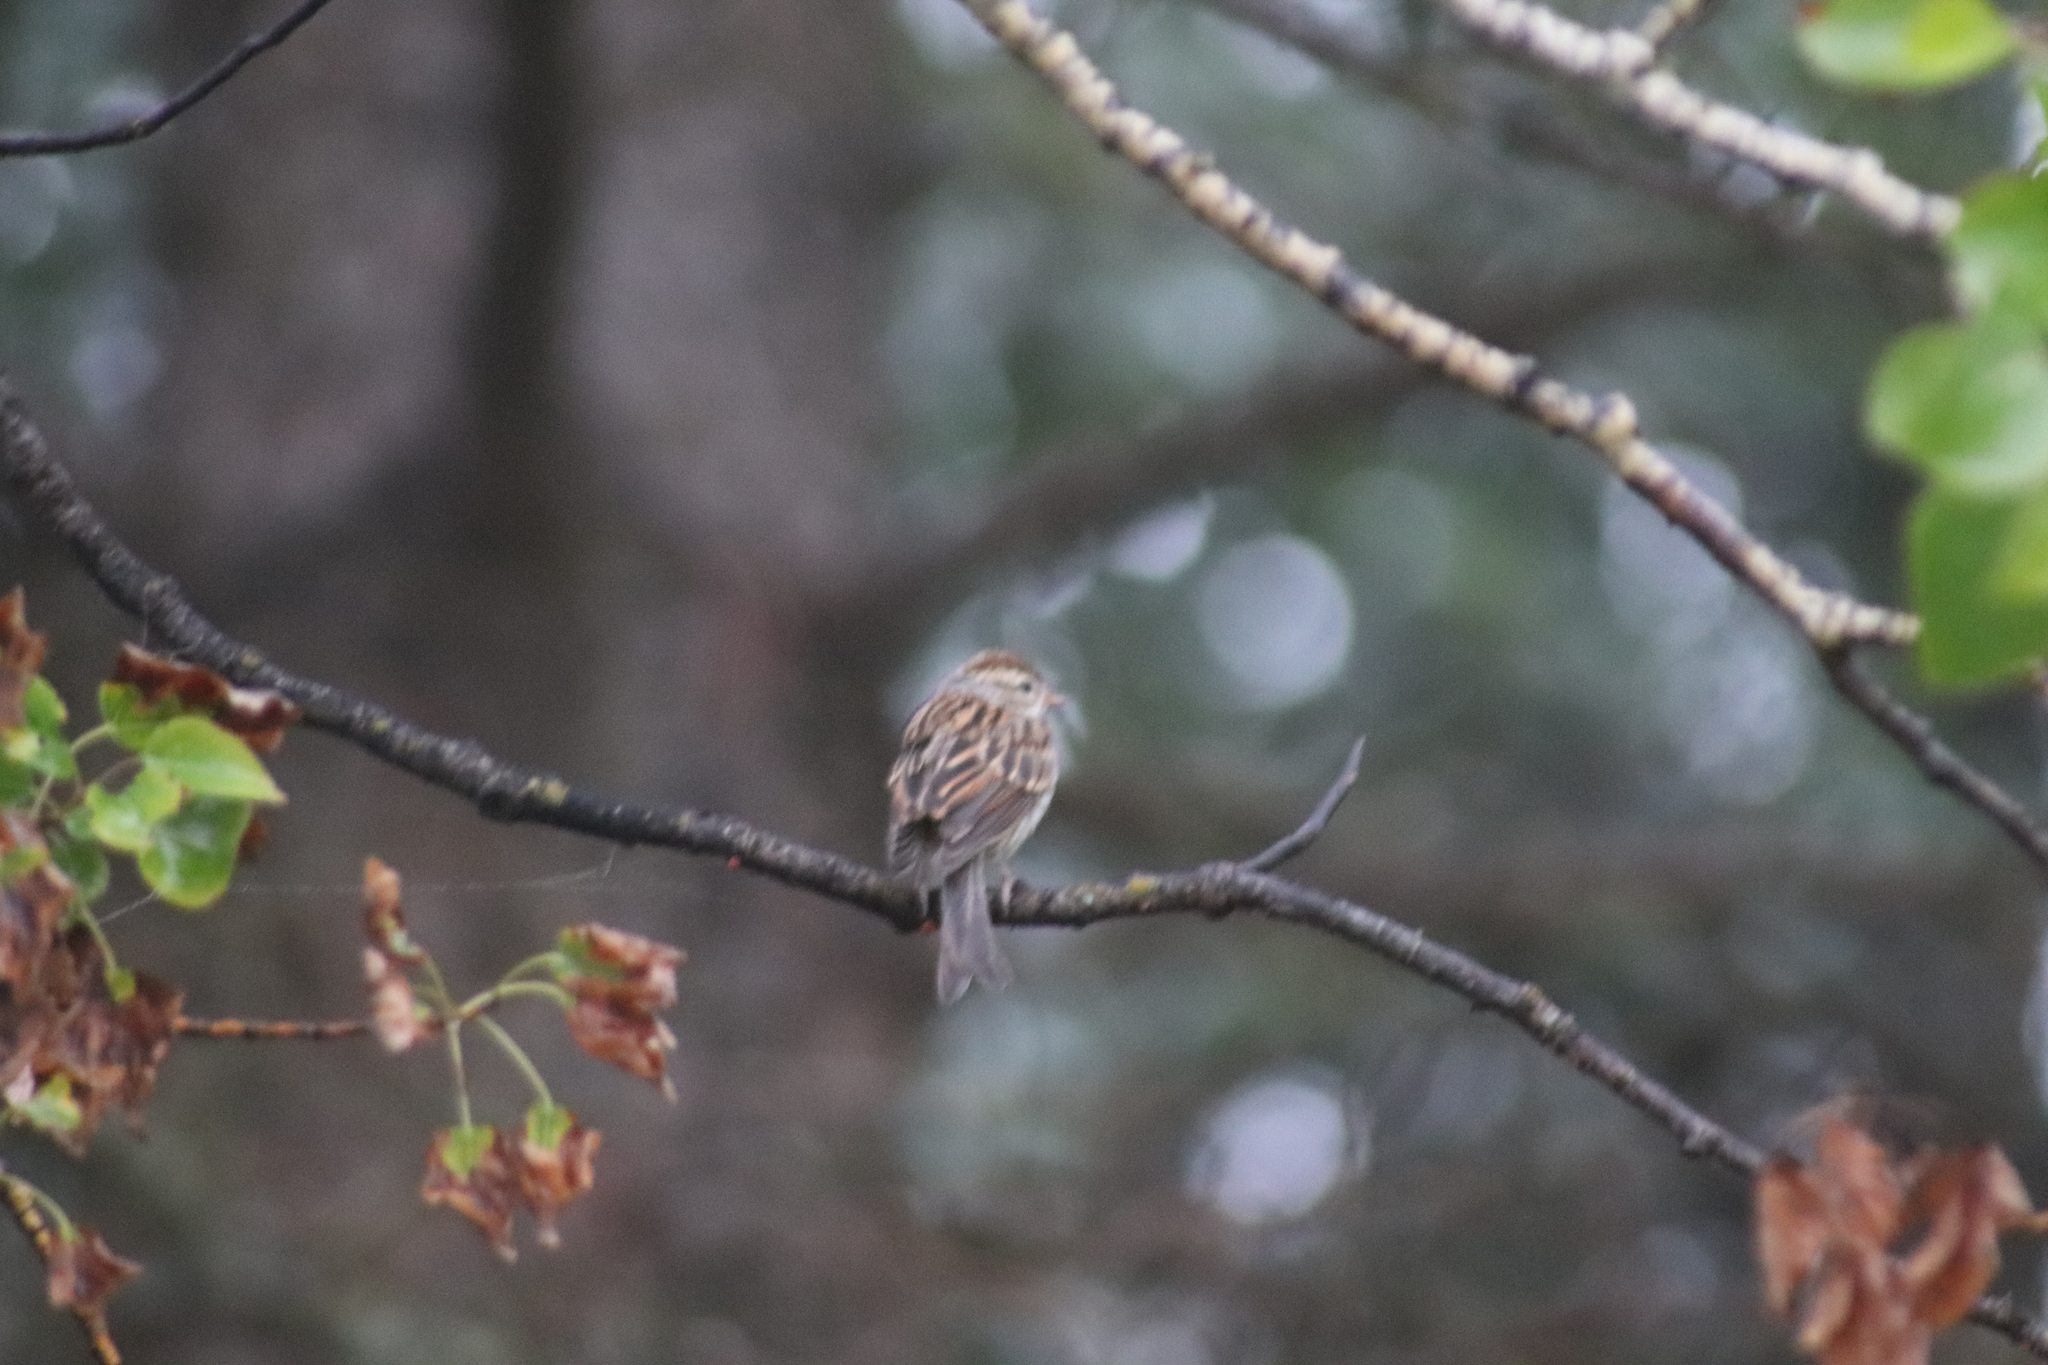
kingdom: Animalia
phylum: Chordata
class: Aves
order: Passeriformes
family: Passerellidae
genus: Spizella
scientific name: Spizella passerina
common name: Chipping sparrow
